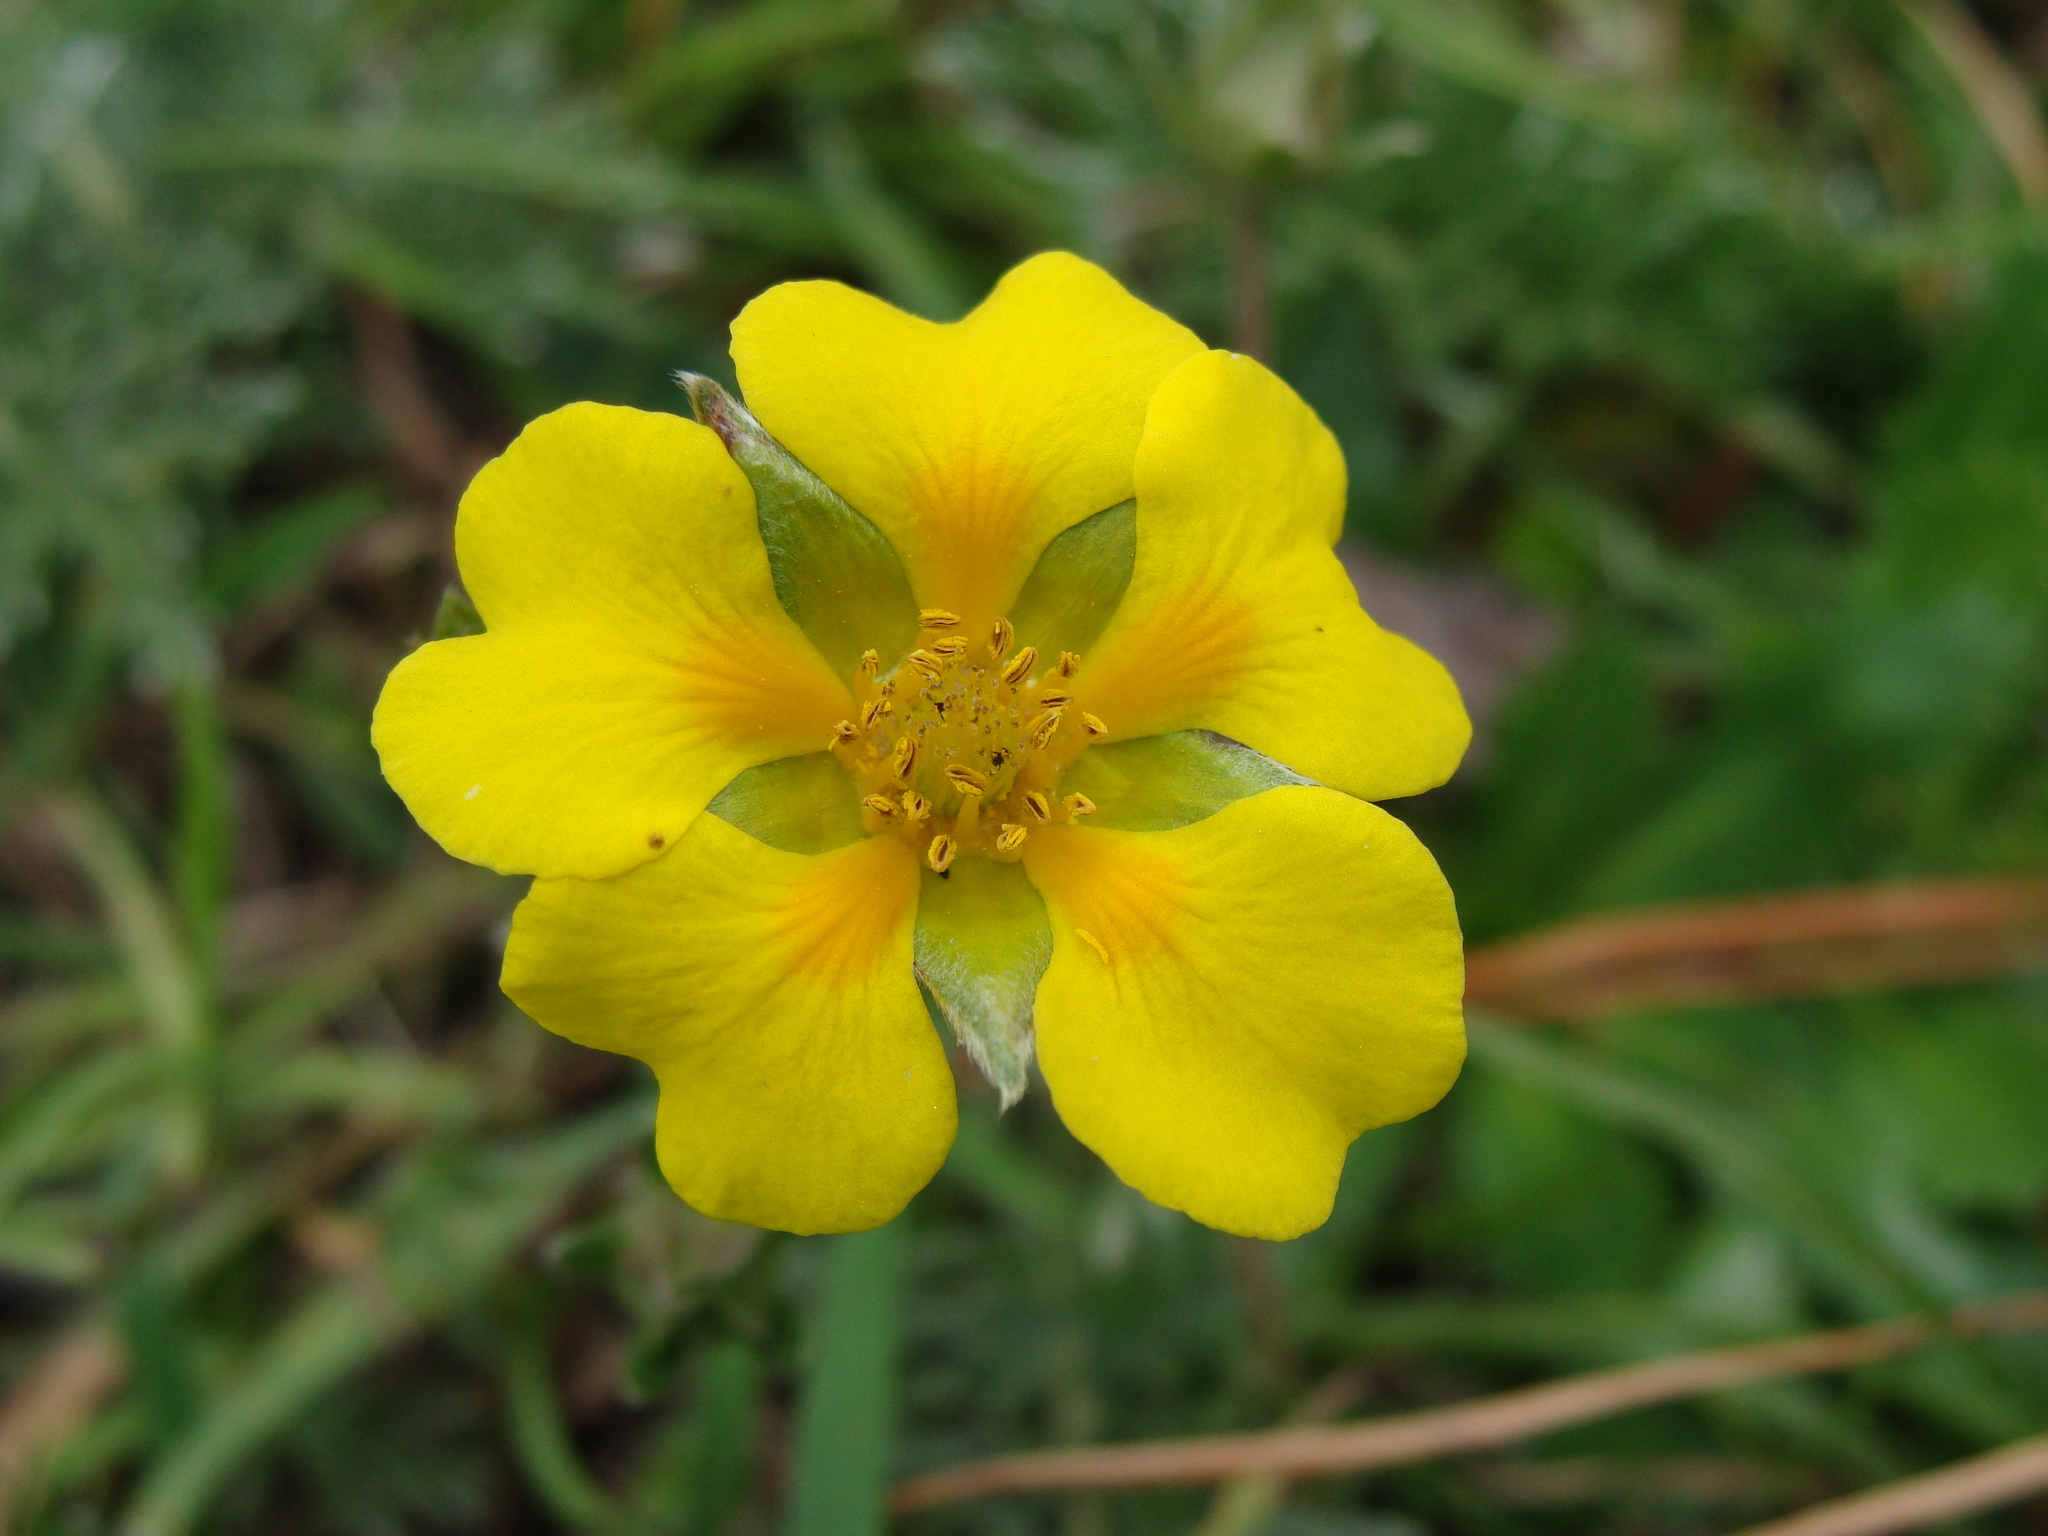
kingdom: Plantae
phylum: Tracheophyta
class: Magnoliopsida
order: Rosales
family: Rosaceae
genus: Potentilla
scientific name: Potentilla candicans
